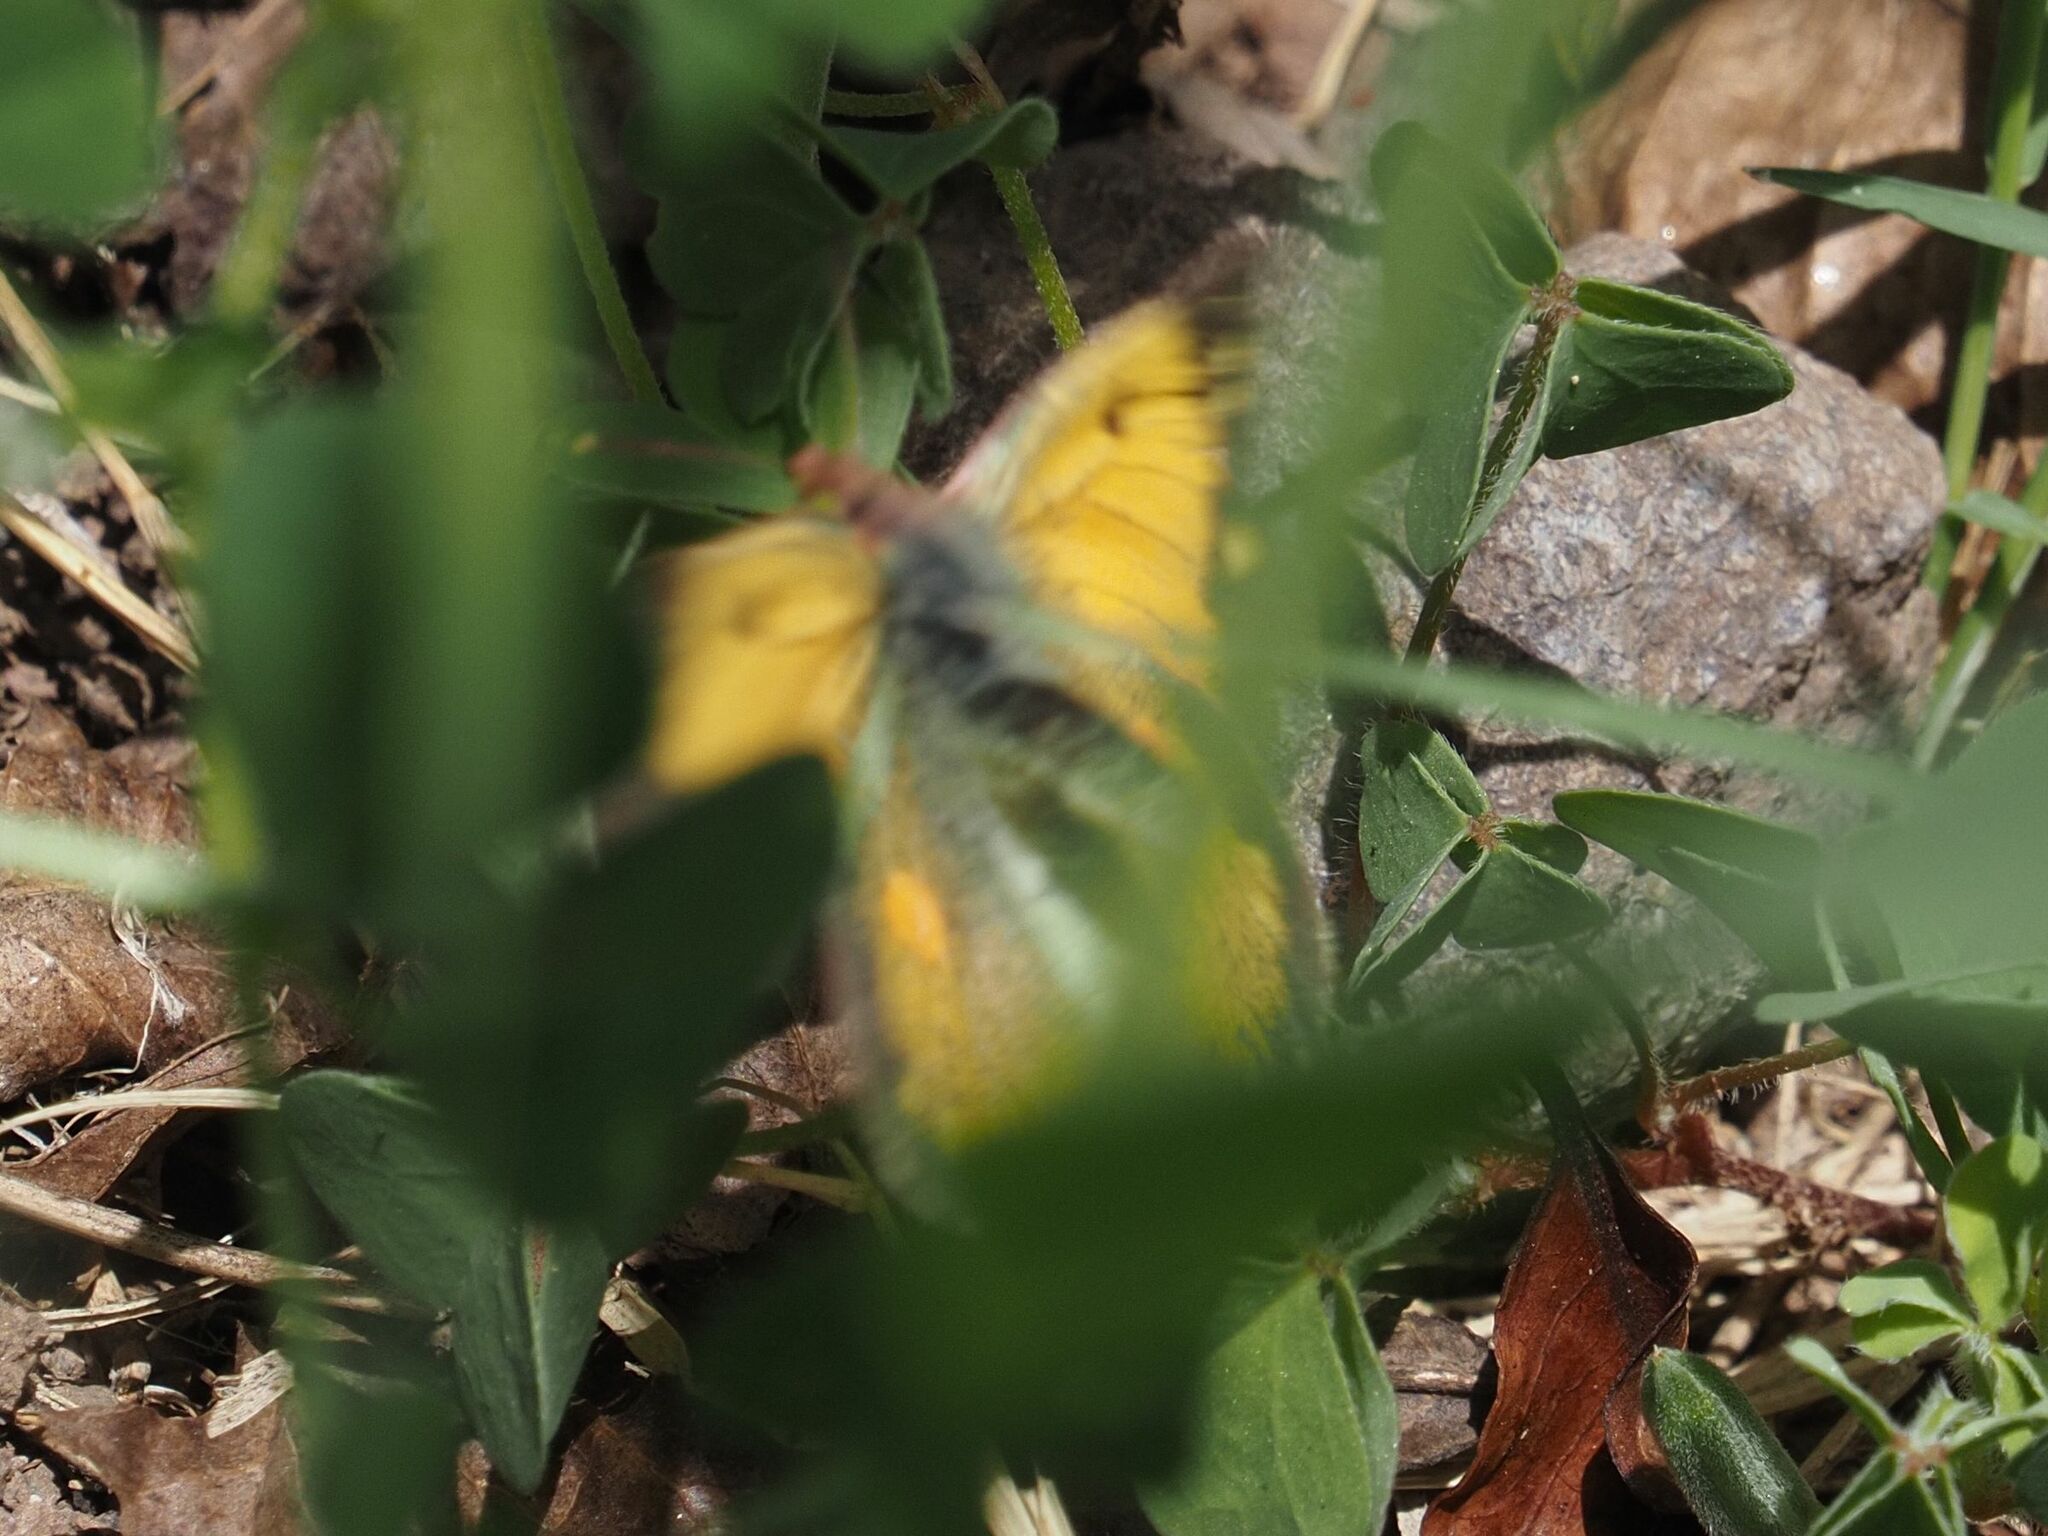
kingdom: Animalia
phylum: Arthropoda
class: Insecta
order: Lepidoptera
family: Pieridae
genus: Colias
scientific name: Colias croceus
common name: Clouded yellow
